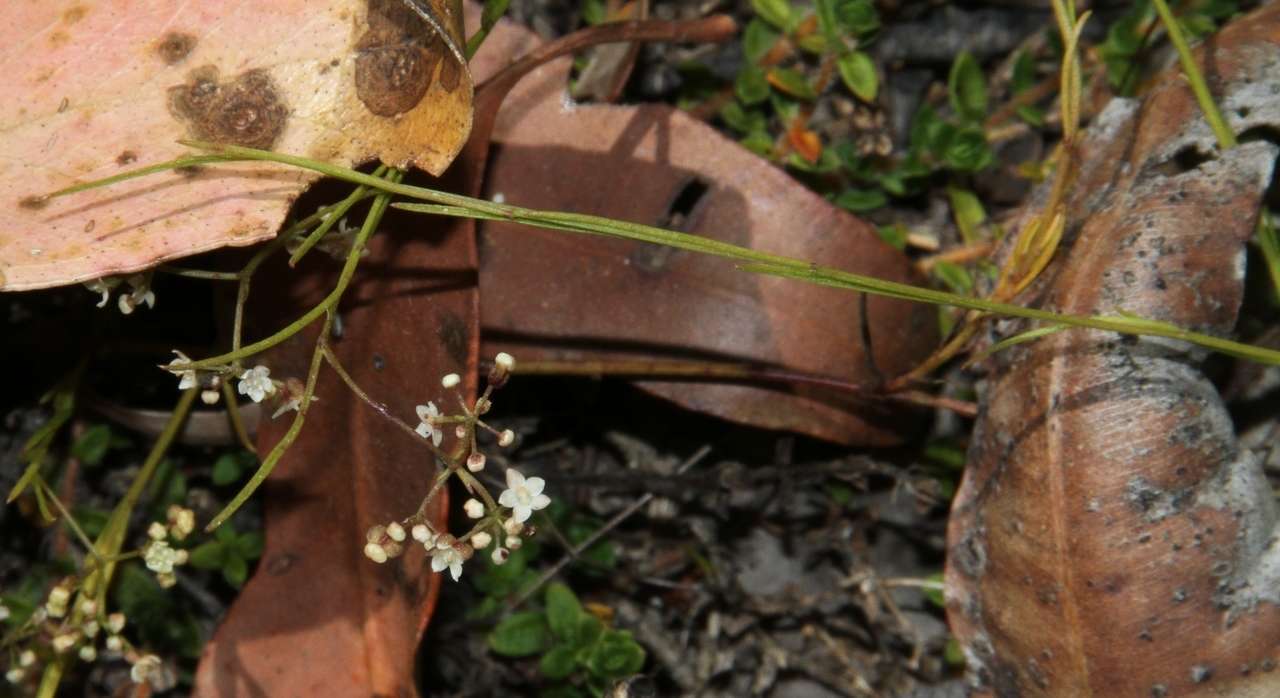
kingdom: Plantae
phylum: Tracheophyta
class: Magnoliopsida
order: Apiales
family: Apiaceae
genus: Platysace
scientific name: Platysace heterophylla
